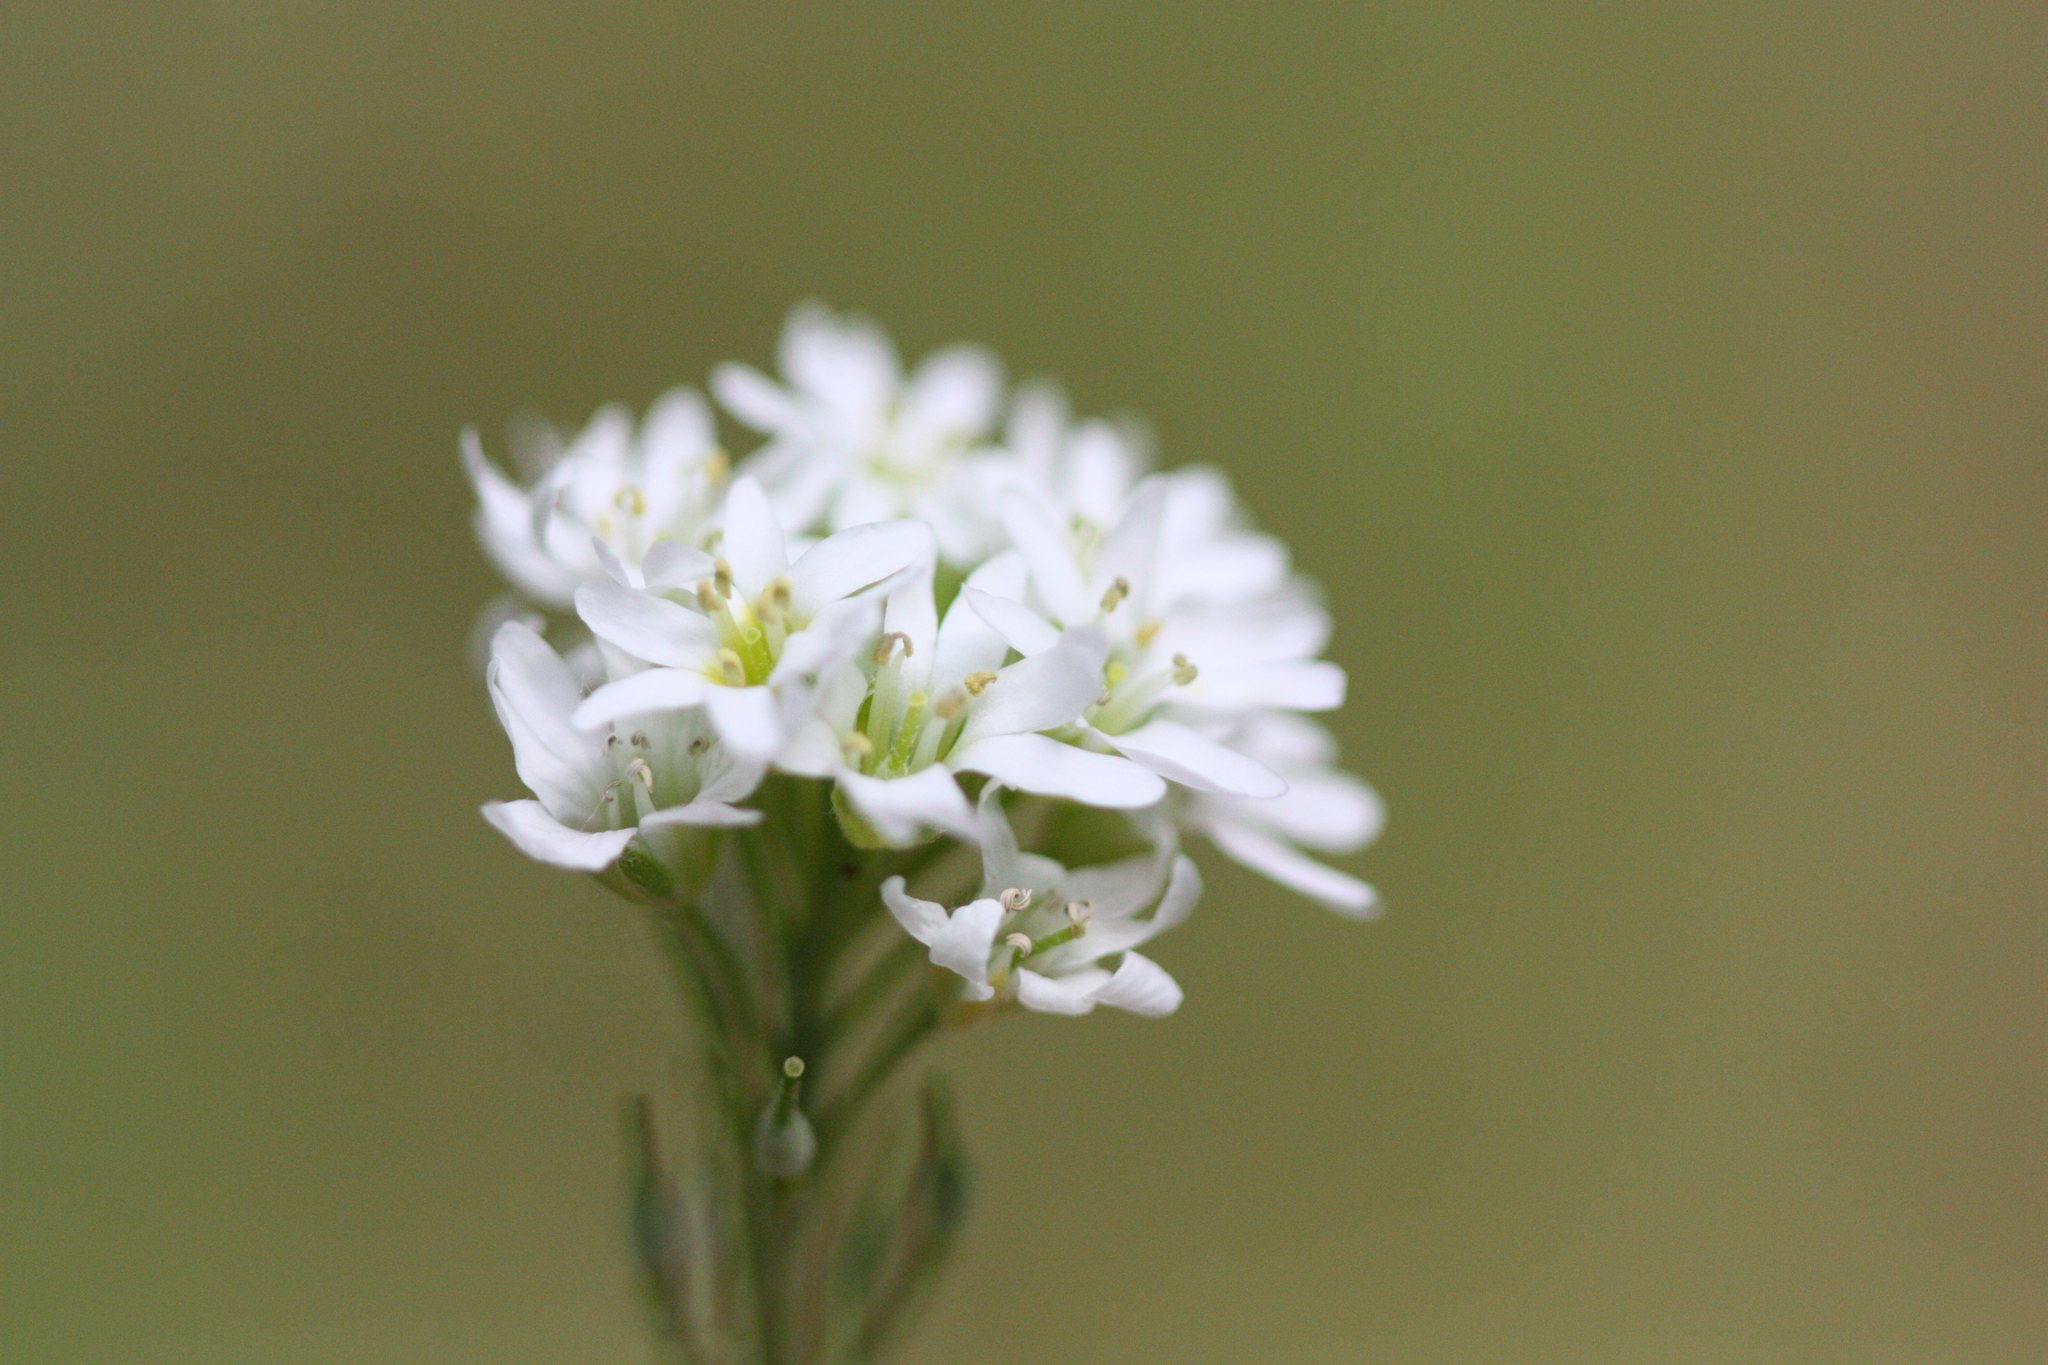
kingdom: Plantae
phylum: Tracheophyta
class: Magnoliopsida
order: Brassicales
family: Brassicaceae
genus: Berteroa
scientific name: Berteroa incana
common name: Hoary alison
